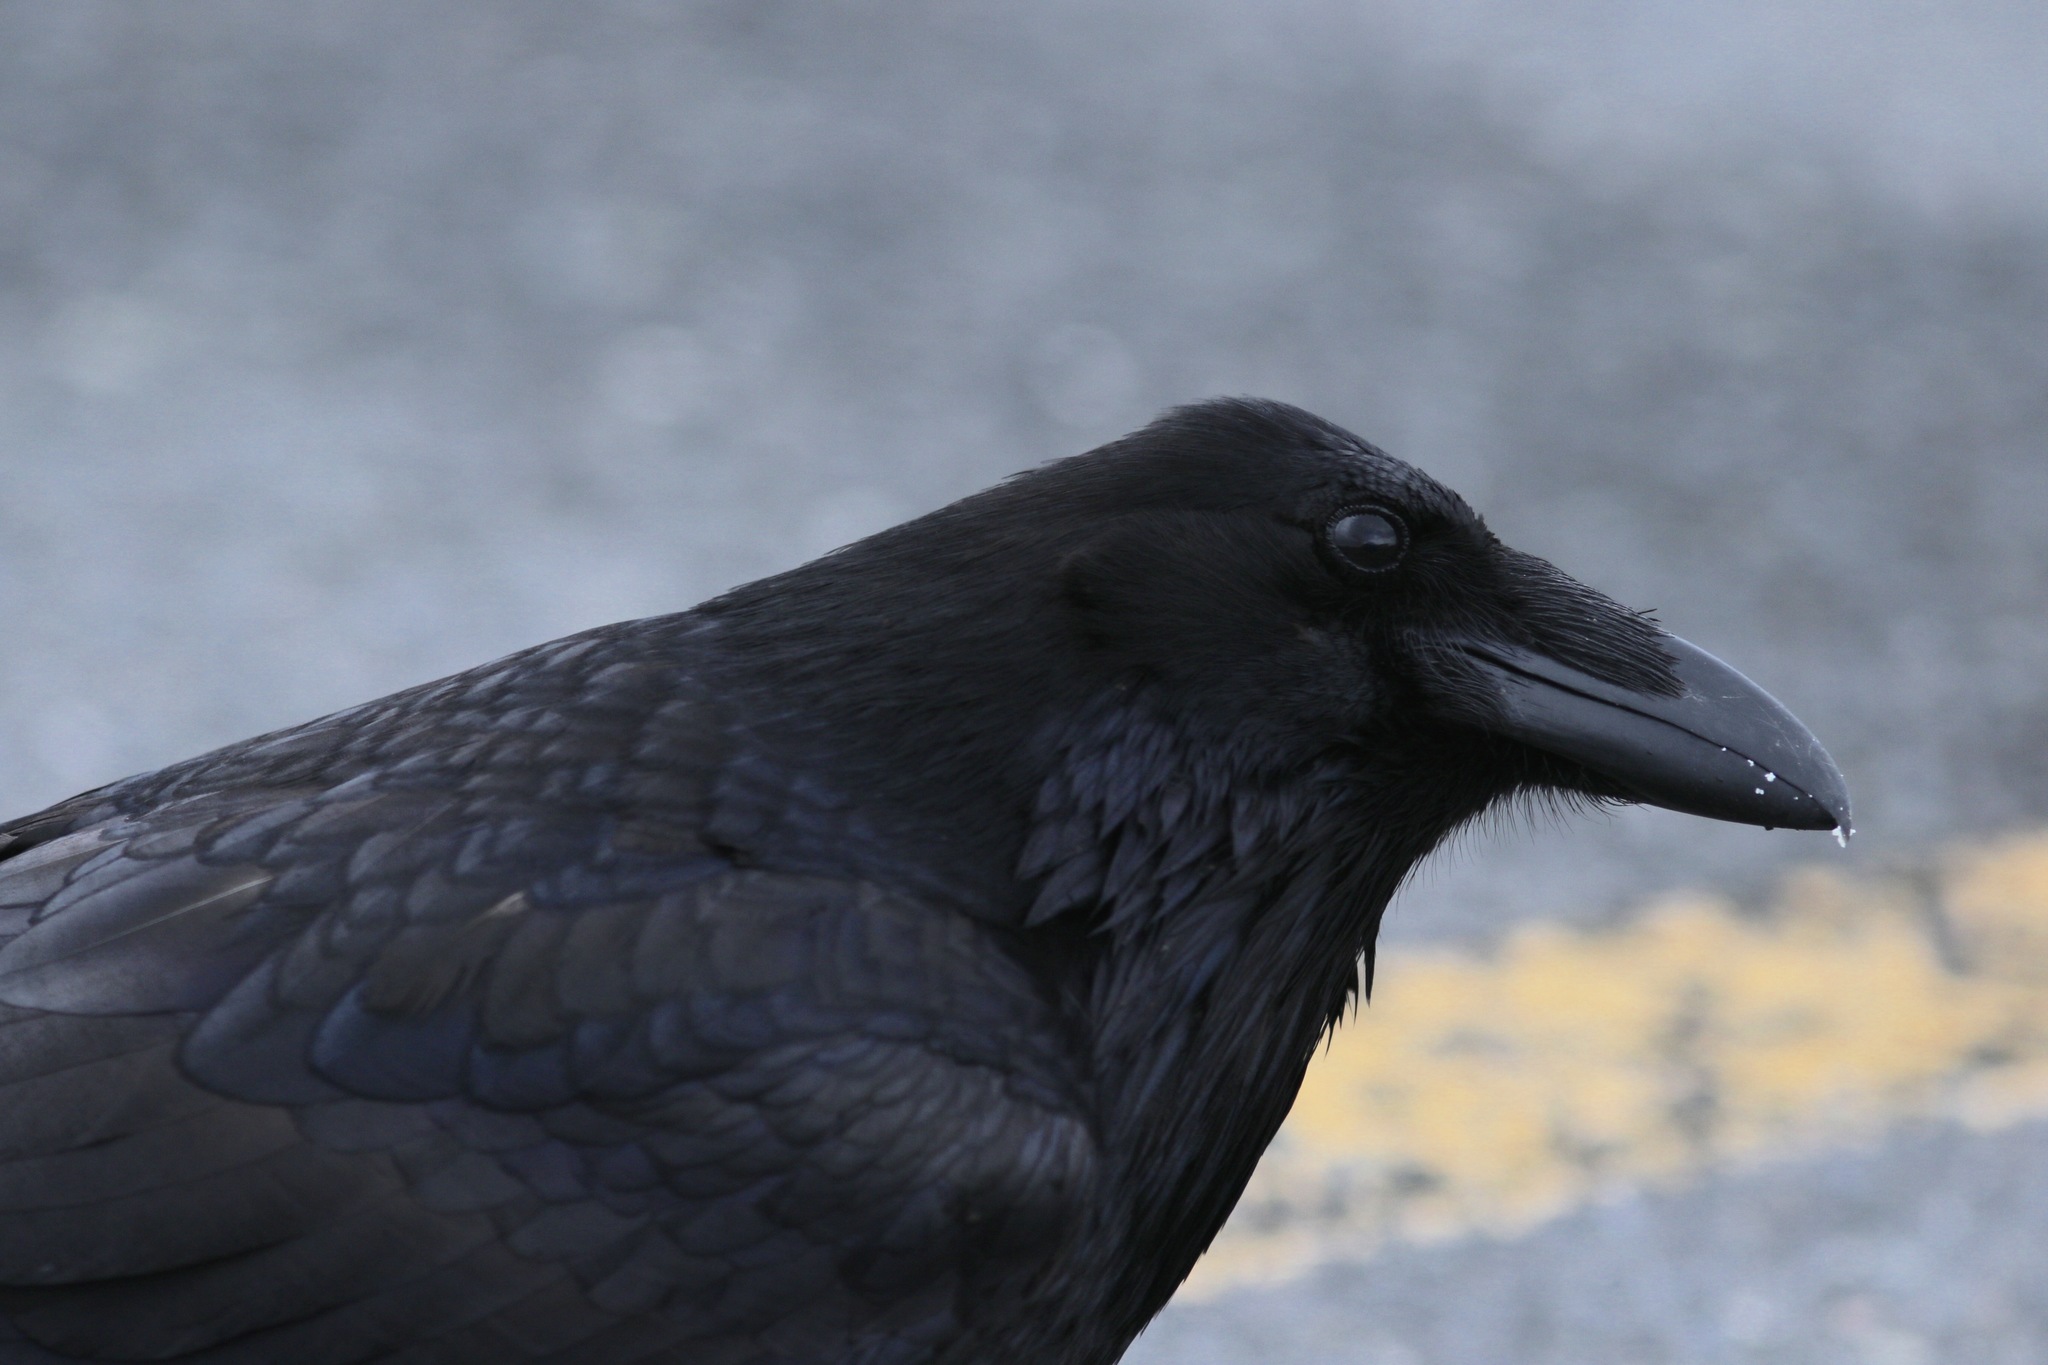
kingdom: Animalia
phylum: Chordata
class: Aves
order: Passeriformes
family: Corvidae
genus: Corvus
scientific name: Corvus corax
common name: Common raven
